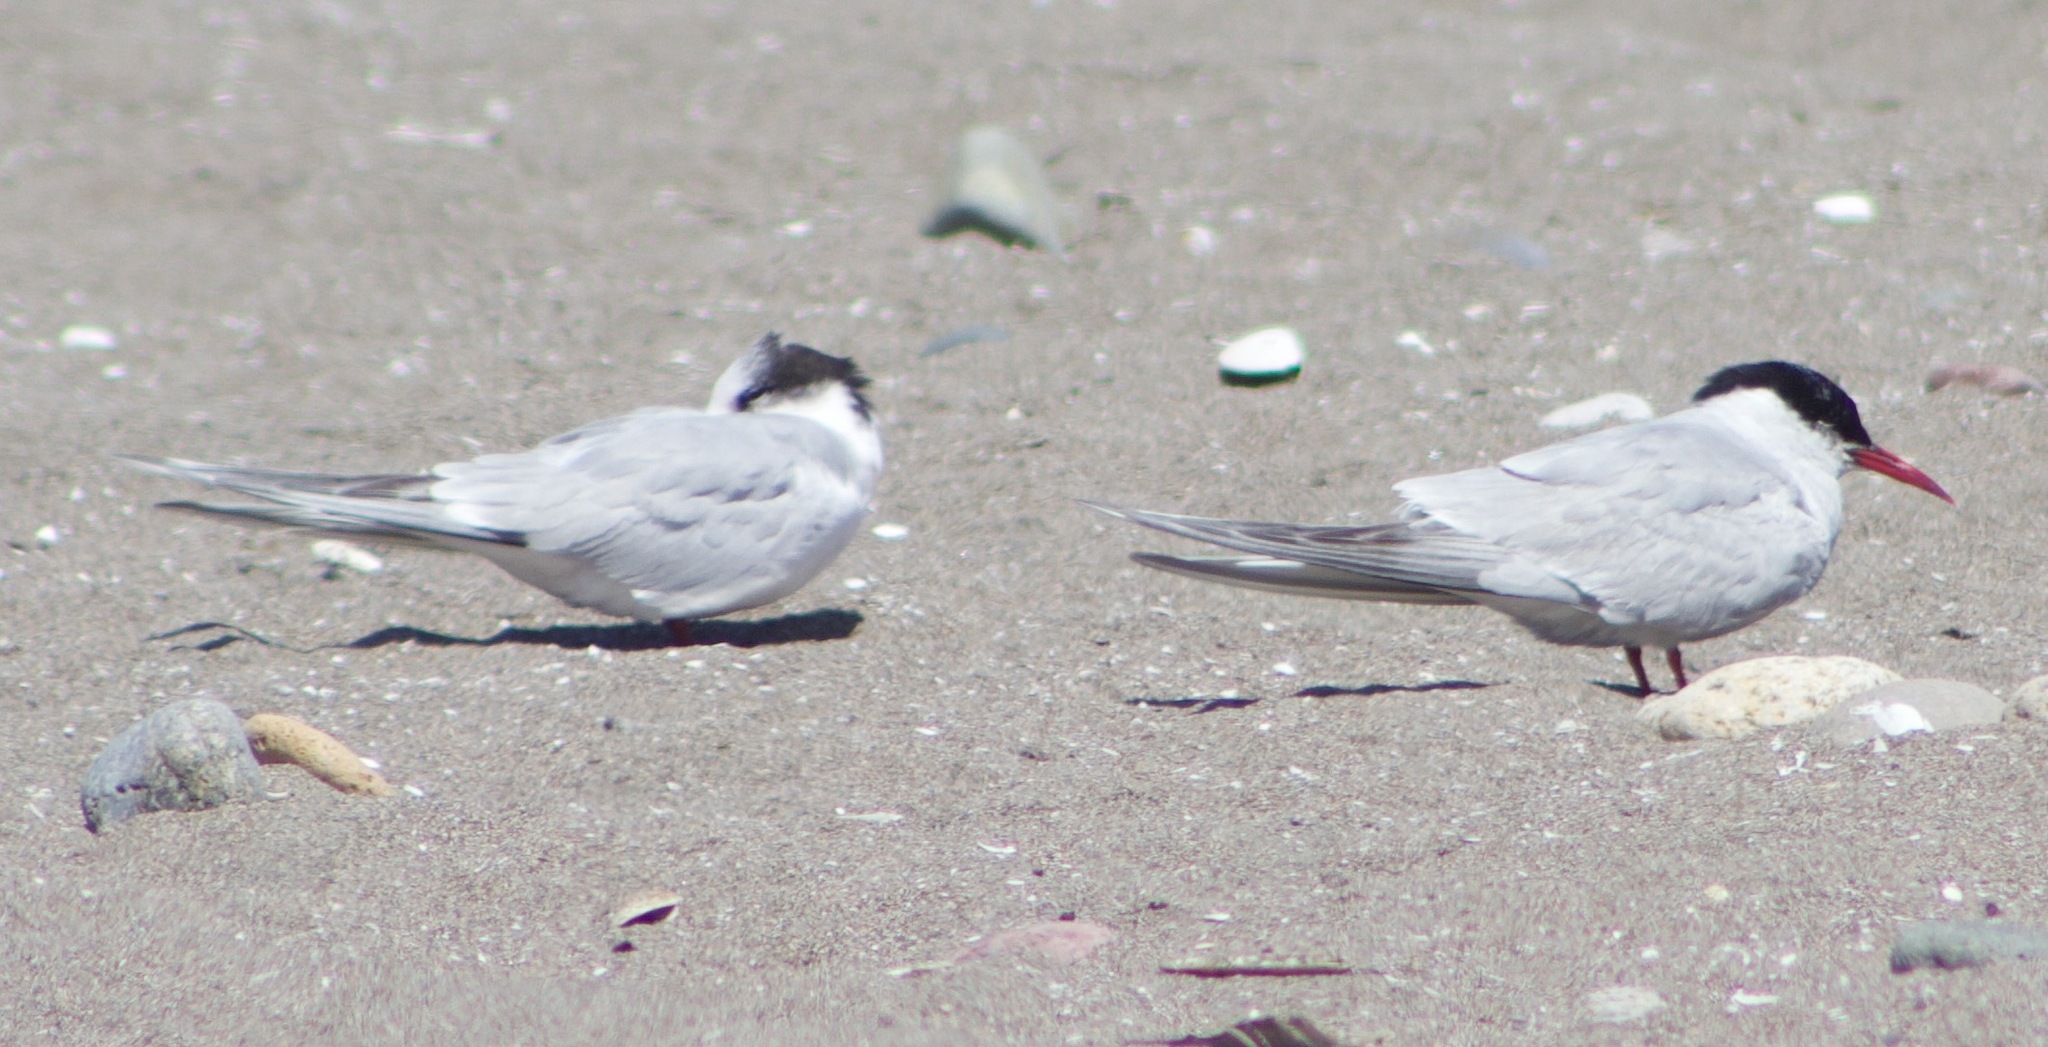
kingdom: Animalia
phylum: Chordata
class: Aves
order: Charadriiformes
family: Laridae
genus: Sterna
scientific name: Sterna hirundinacea
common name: South american tern
